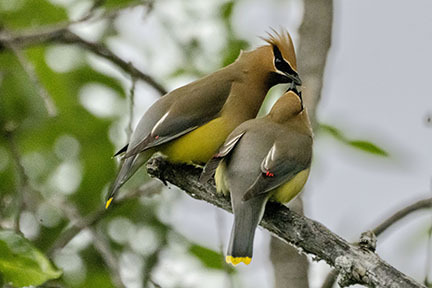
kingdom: Animalia
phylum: Chordata
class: Aves
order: Passeriformes
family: Bombycillidae
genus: Bombycilla
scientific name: Bombycilla cedrorum
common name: Cedar waxwing
